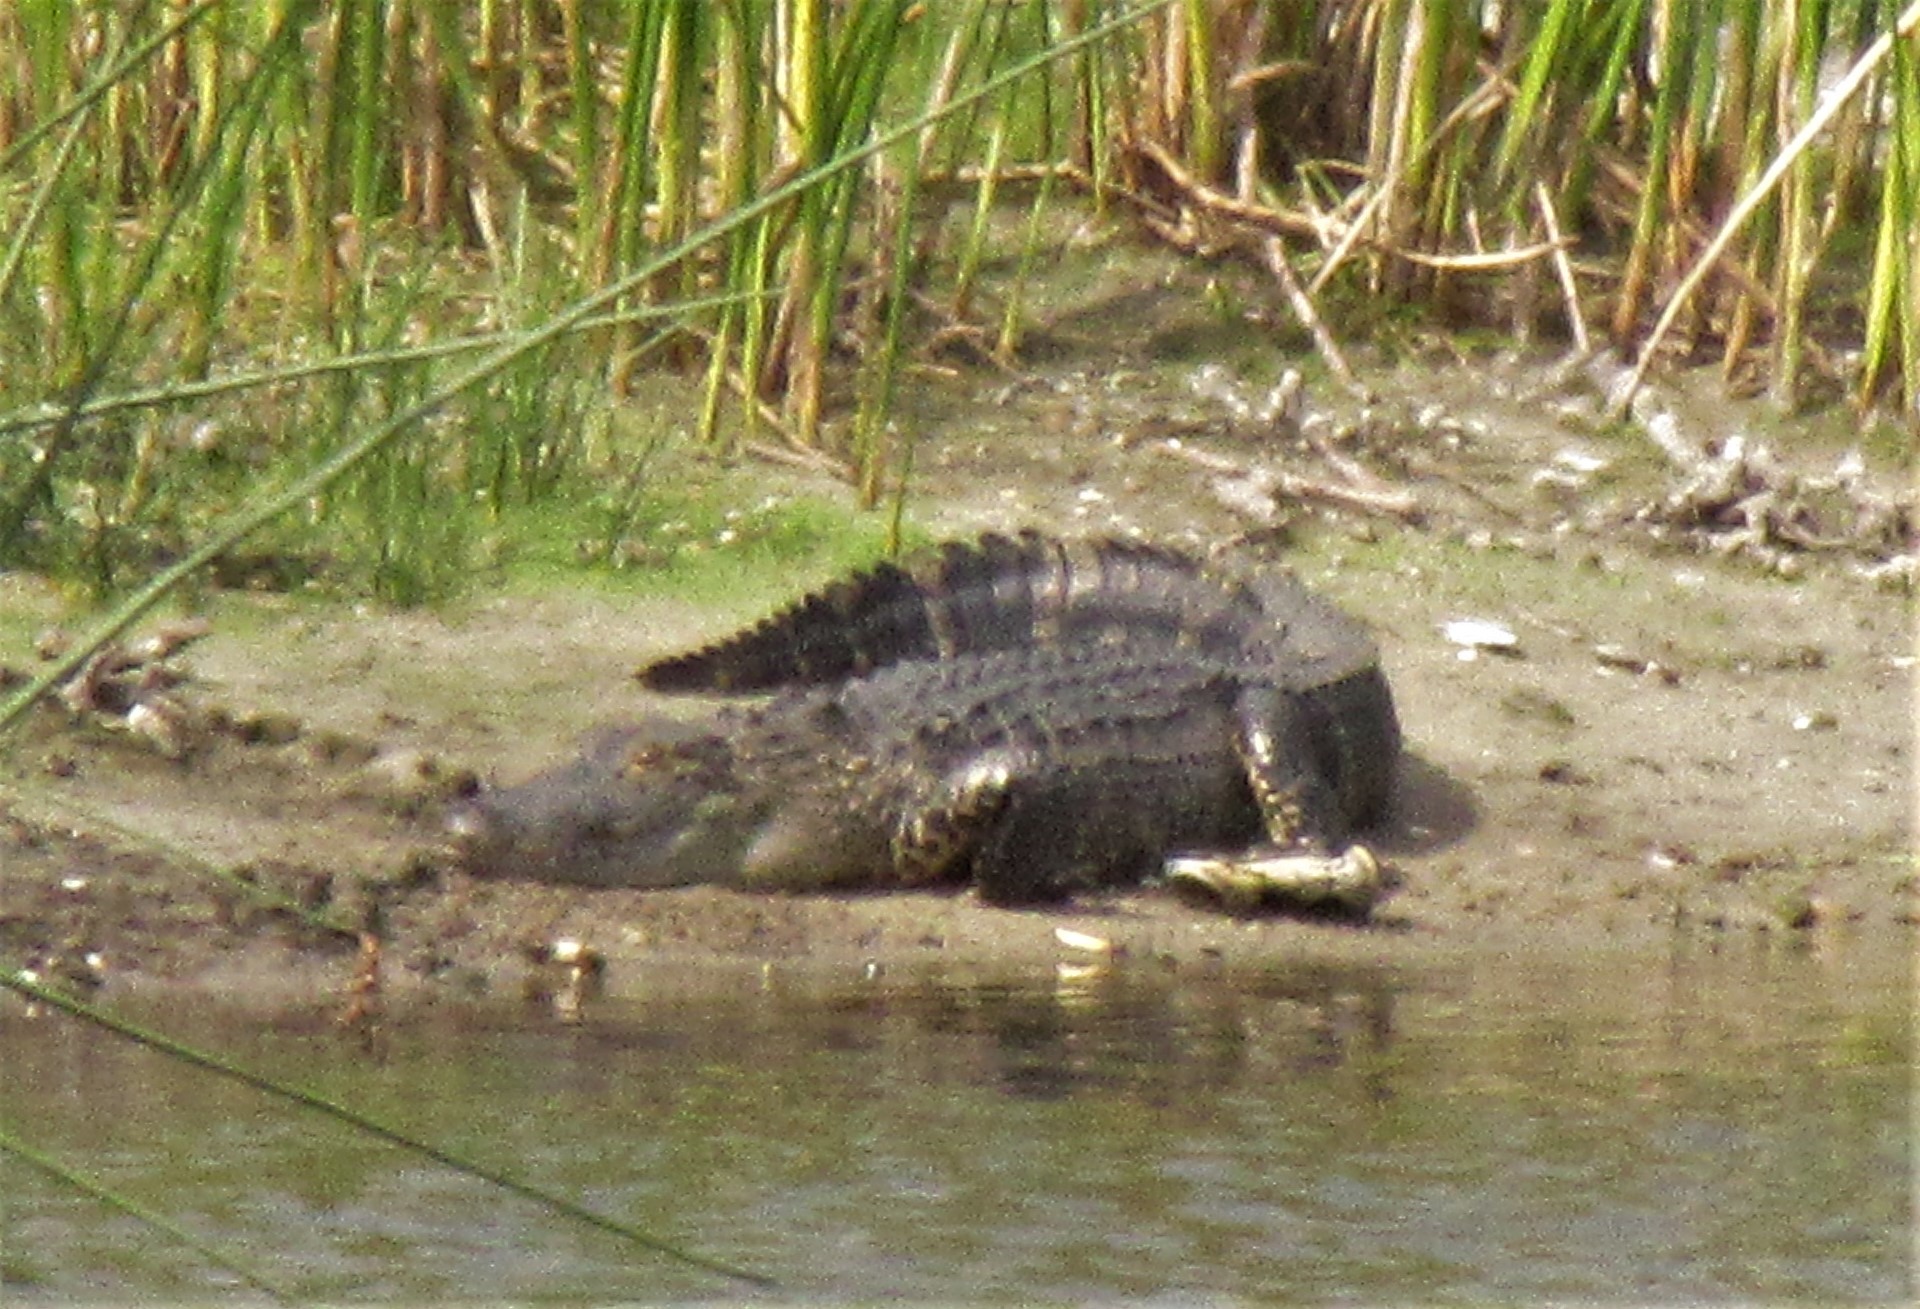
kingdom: Animalia
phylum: Chordata
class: Crocodylia
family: Alligatoridae
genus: Alligator
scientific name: Alligator mississippiensis
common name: American alligator
